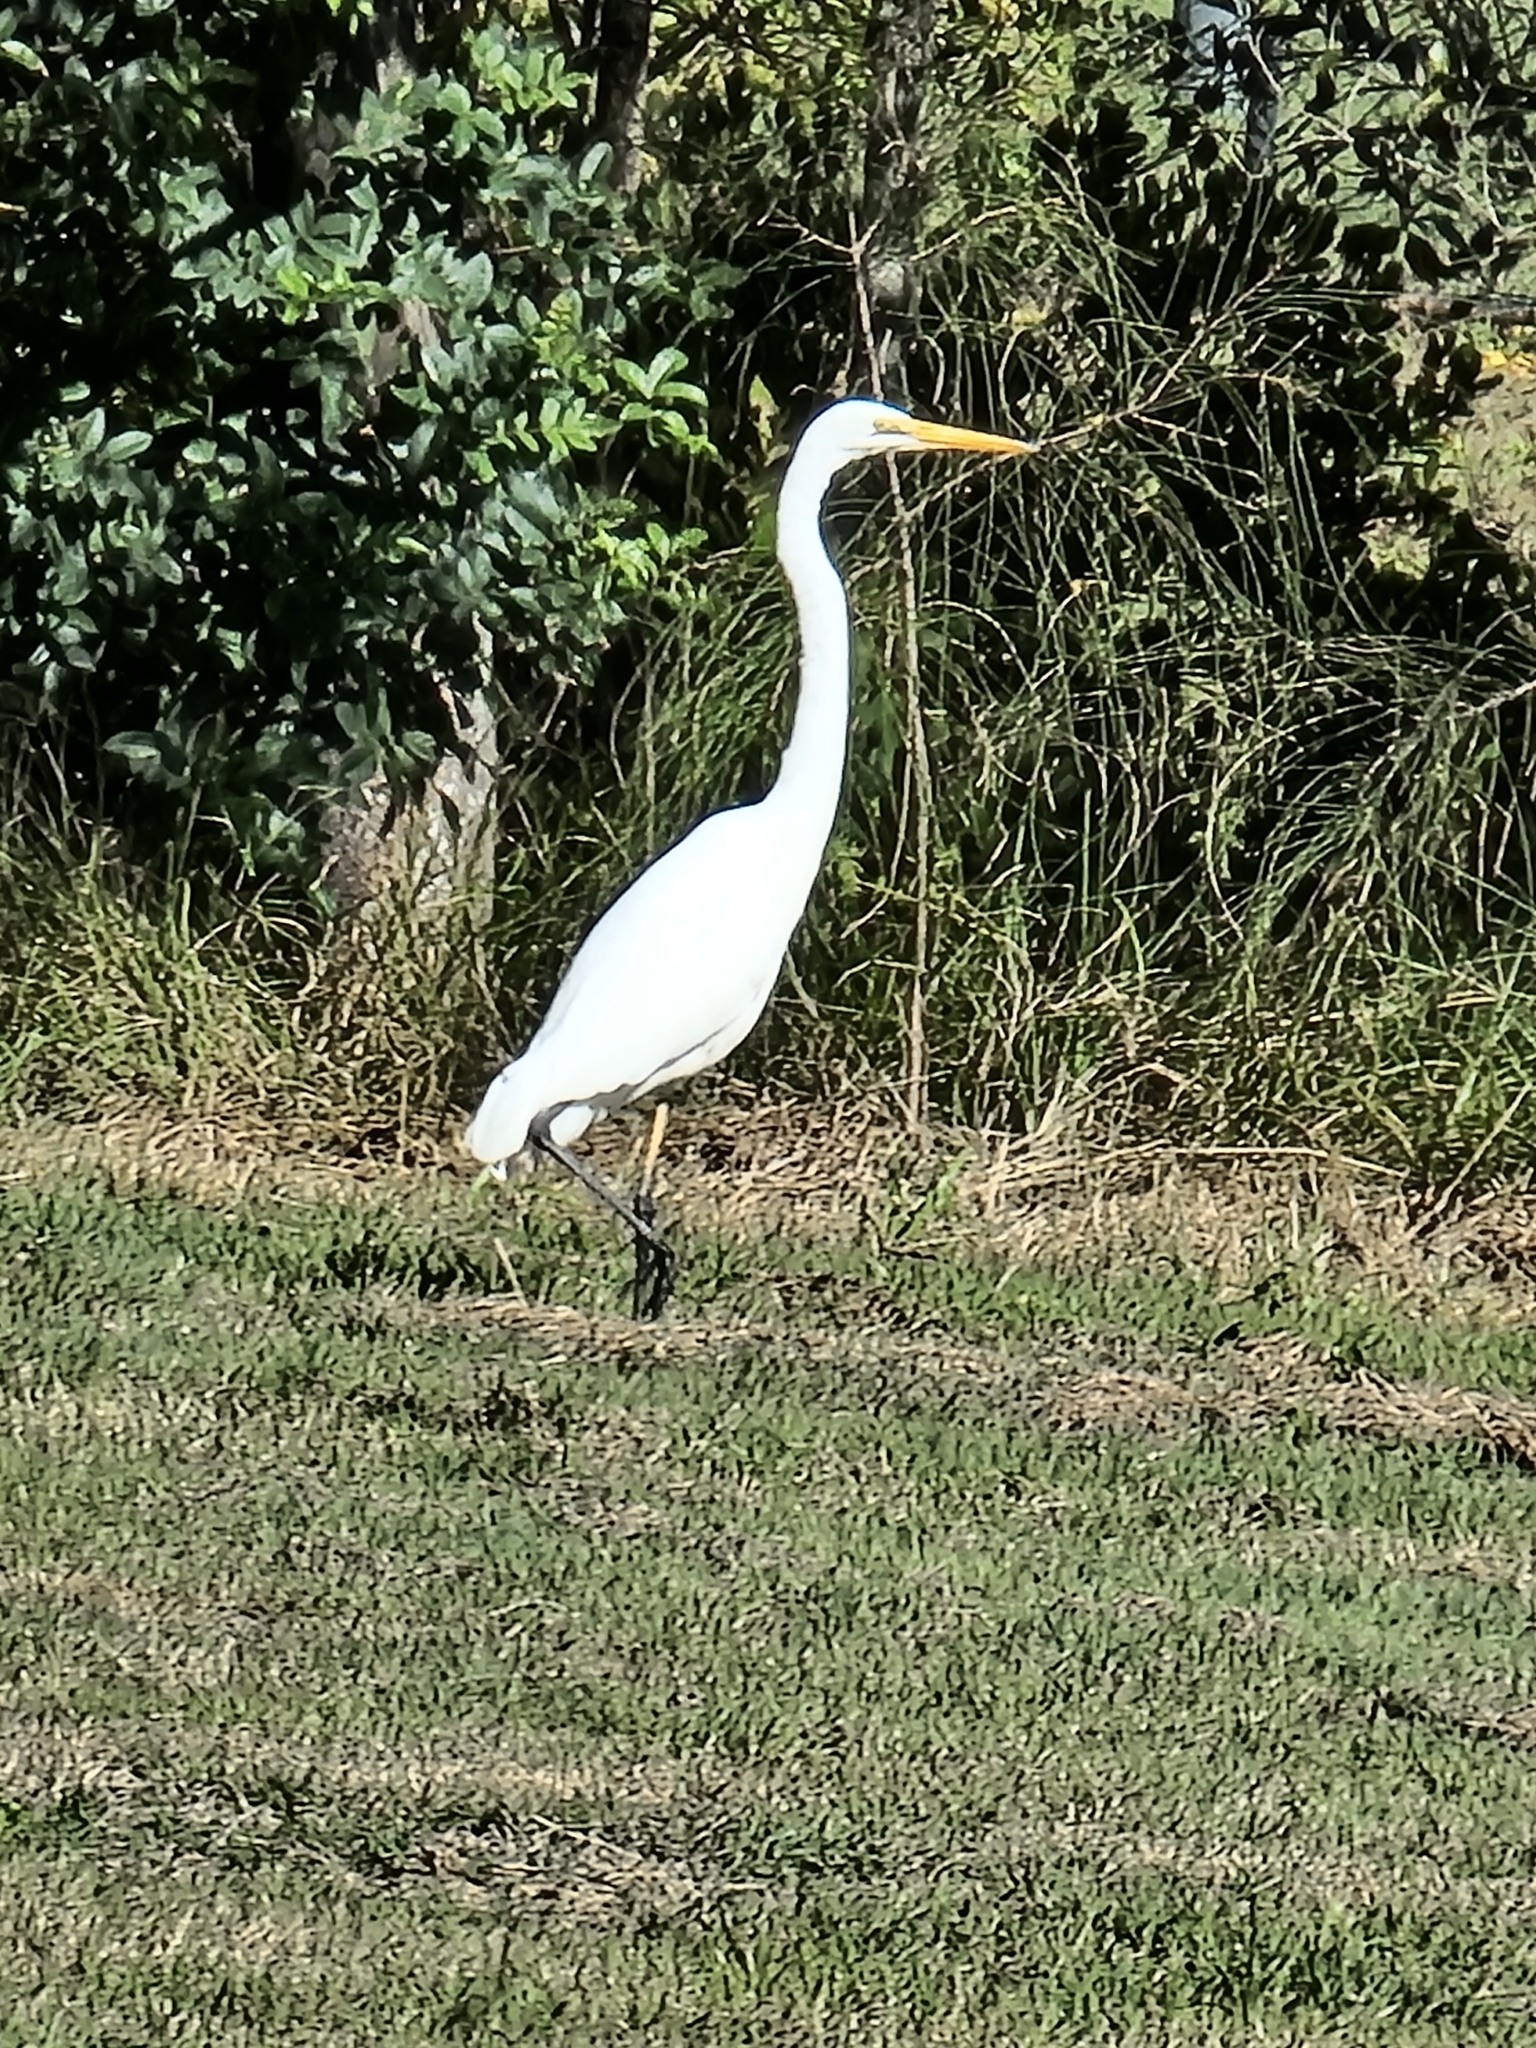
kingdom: Animalia
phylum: Chordata
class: Aves
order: Pelecaniformes
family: Ardeidae
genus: Ardea
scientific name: Ardea alba
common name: Great egret
